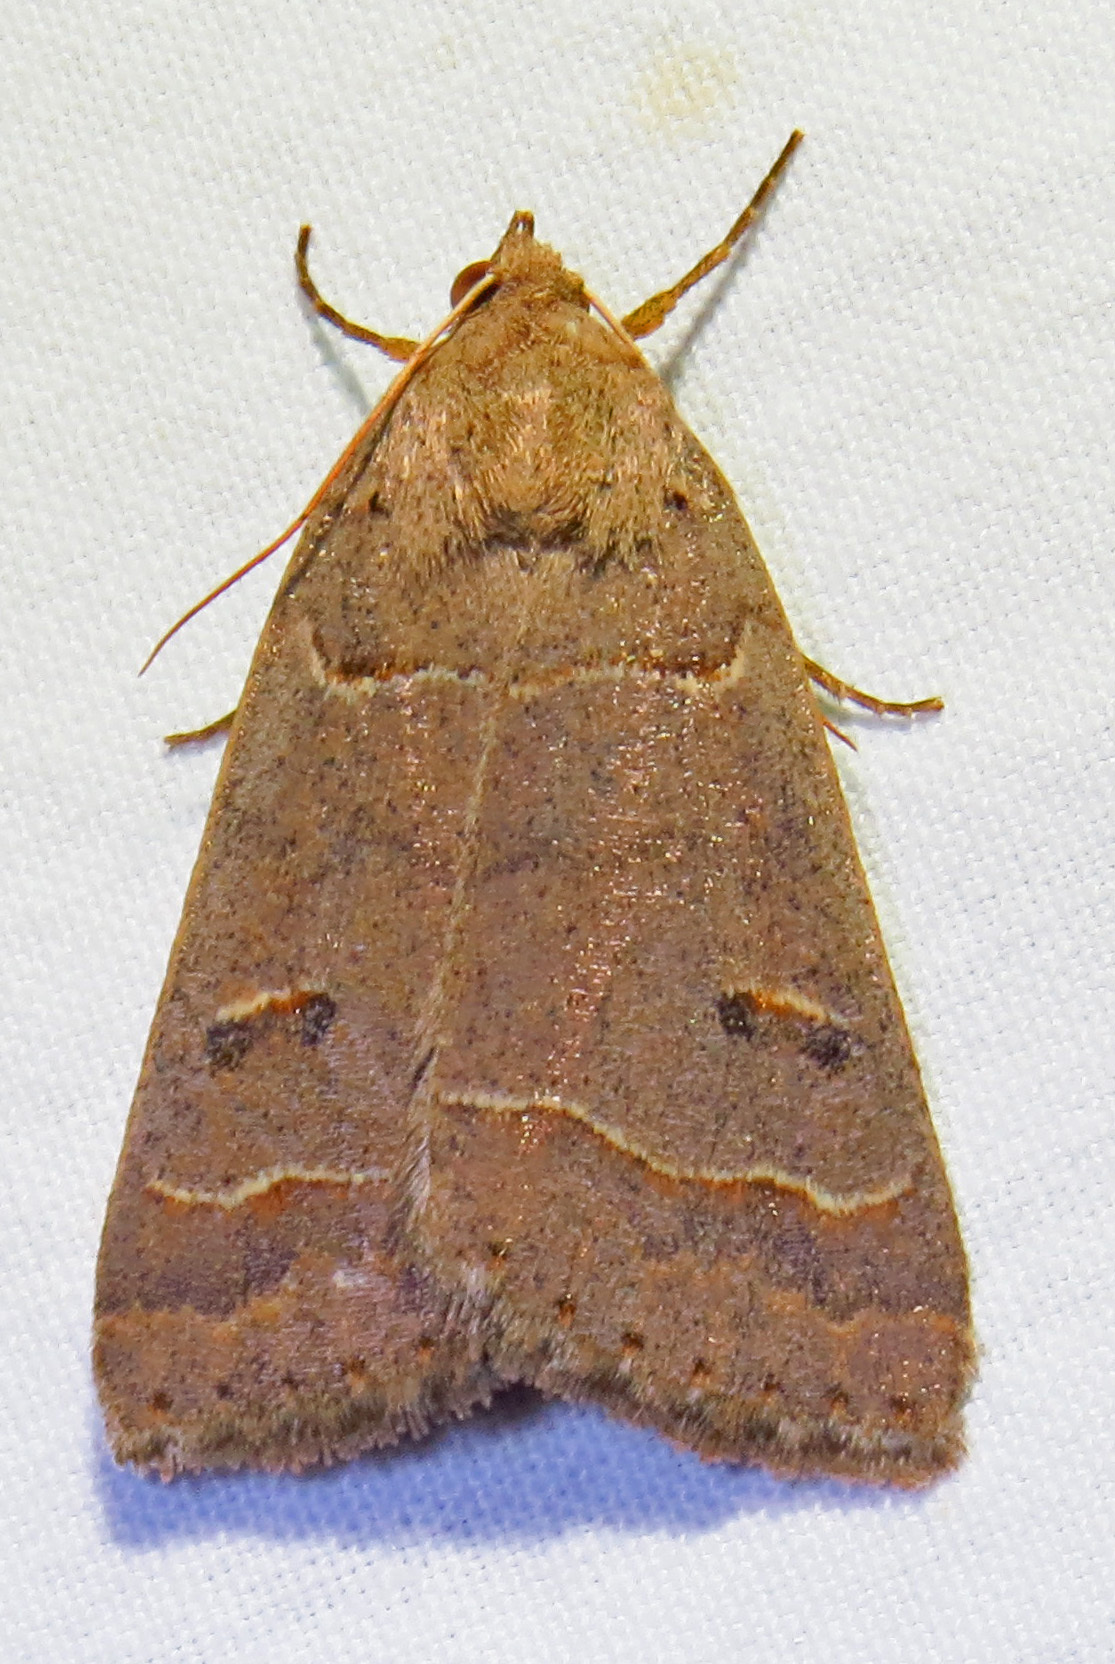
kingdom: Animalia
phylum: Arthropoda
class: Insecta
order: Lepidoptera
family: Erebidae
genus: Phoberia
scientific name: Phoberia atomaris
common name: Common oak moth
